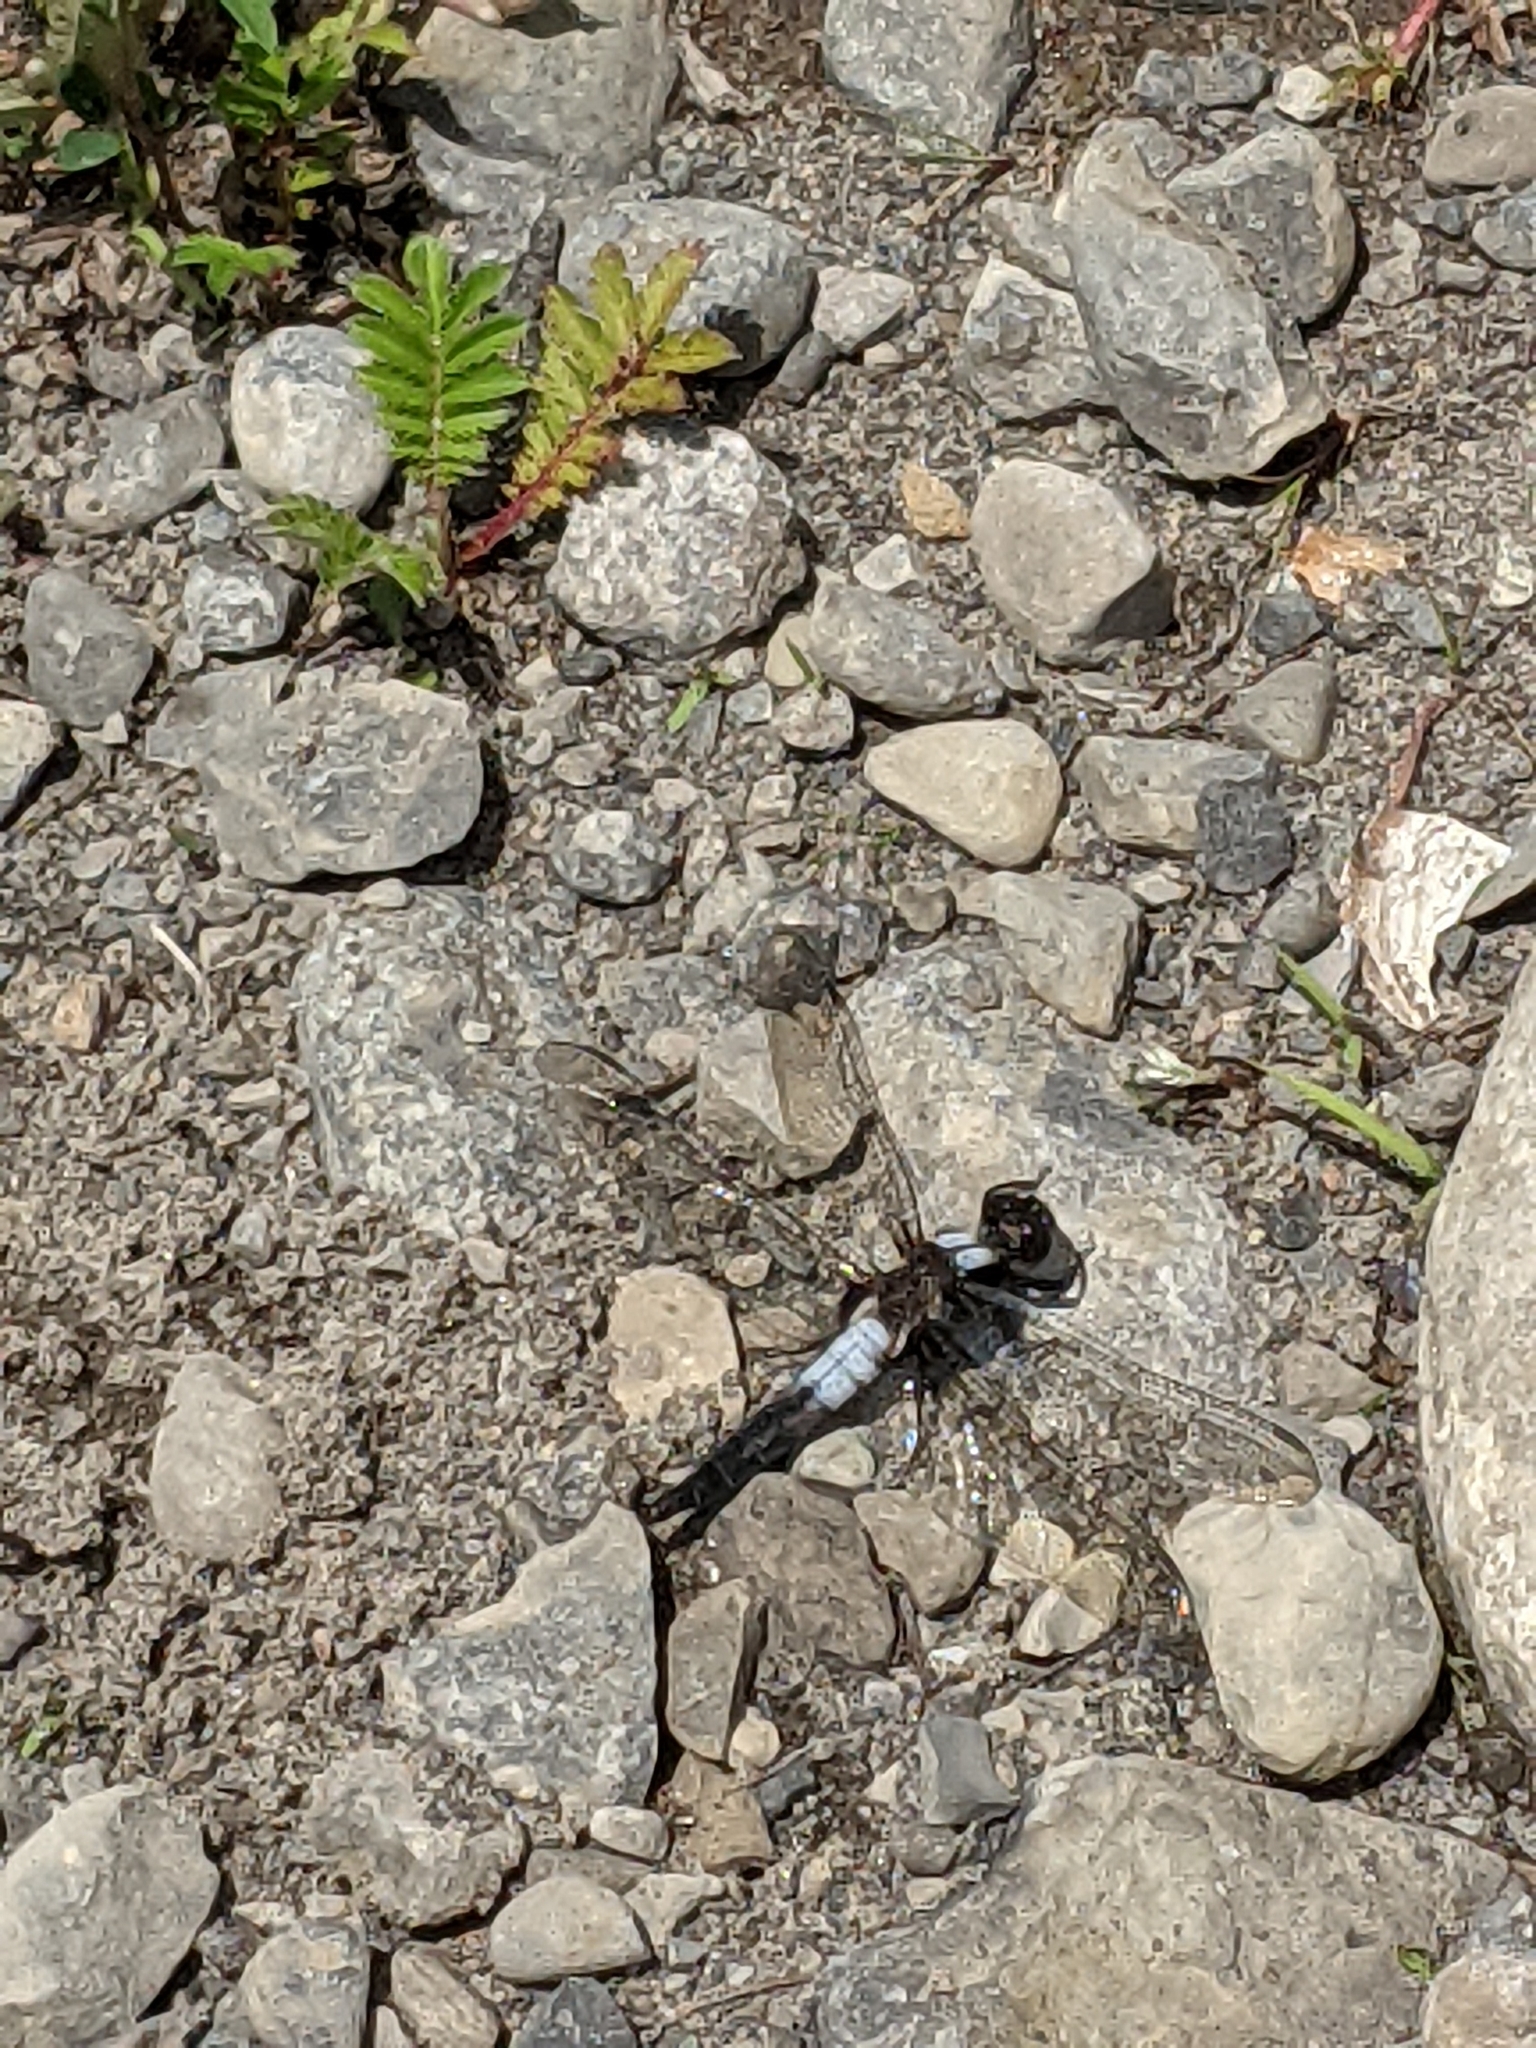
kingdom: Animalia
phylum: Arthropoda
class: Insecta
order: Odonata
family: Libellulidae
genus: Ladona
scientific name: Ladona julia
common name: Chalk-fronted corporal
